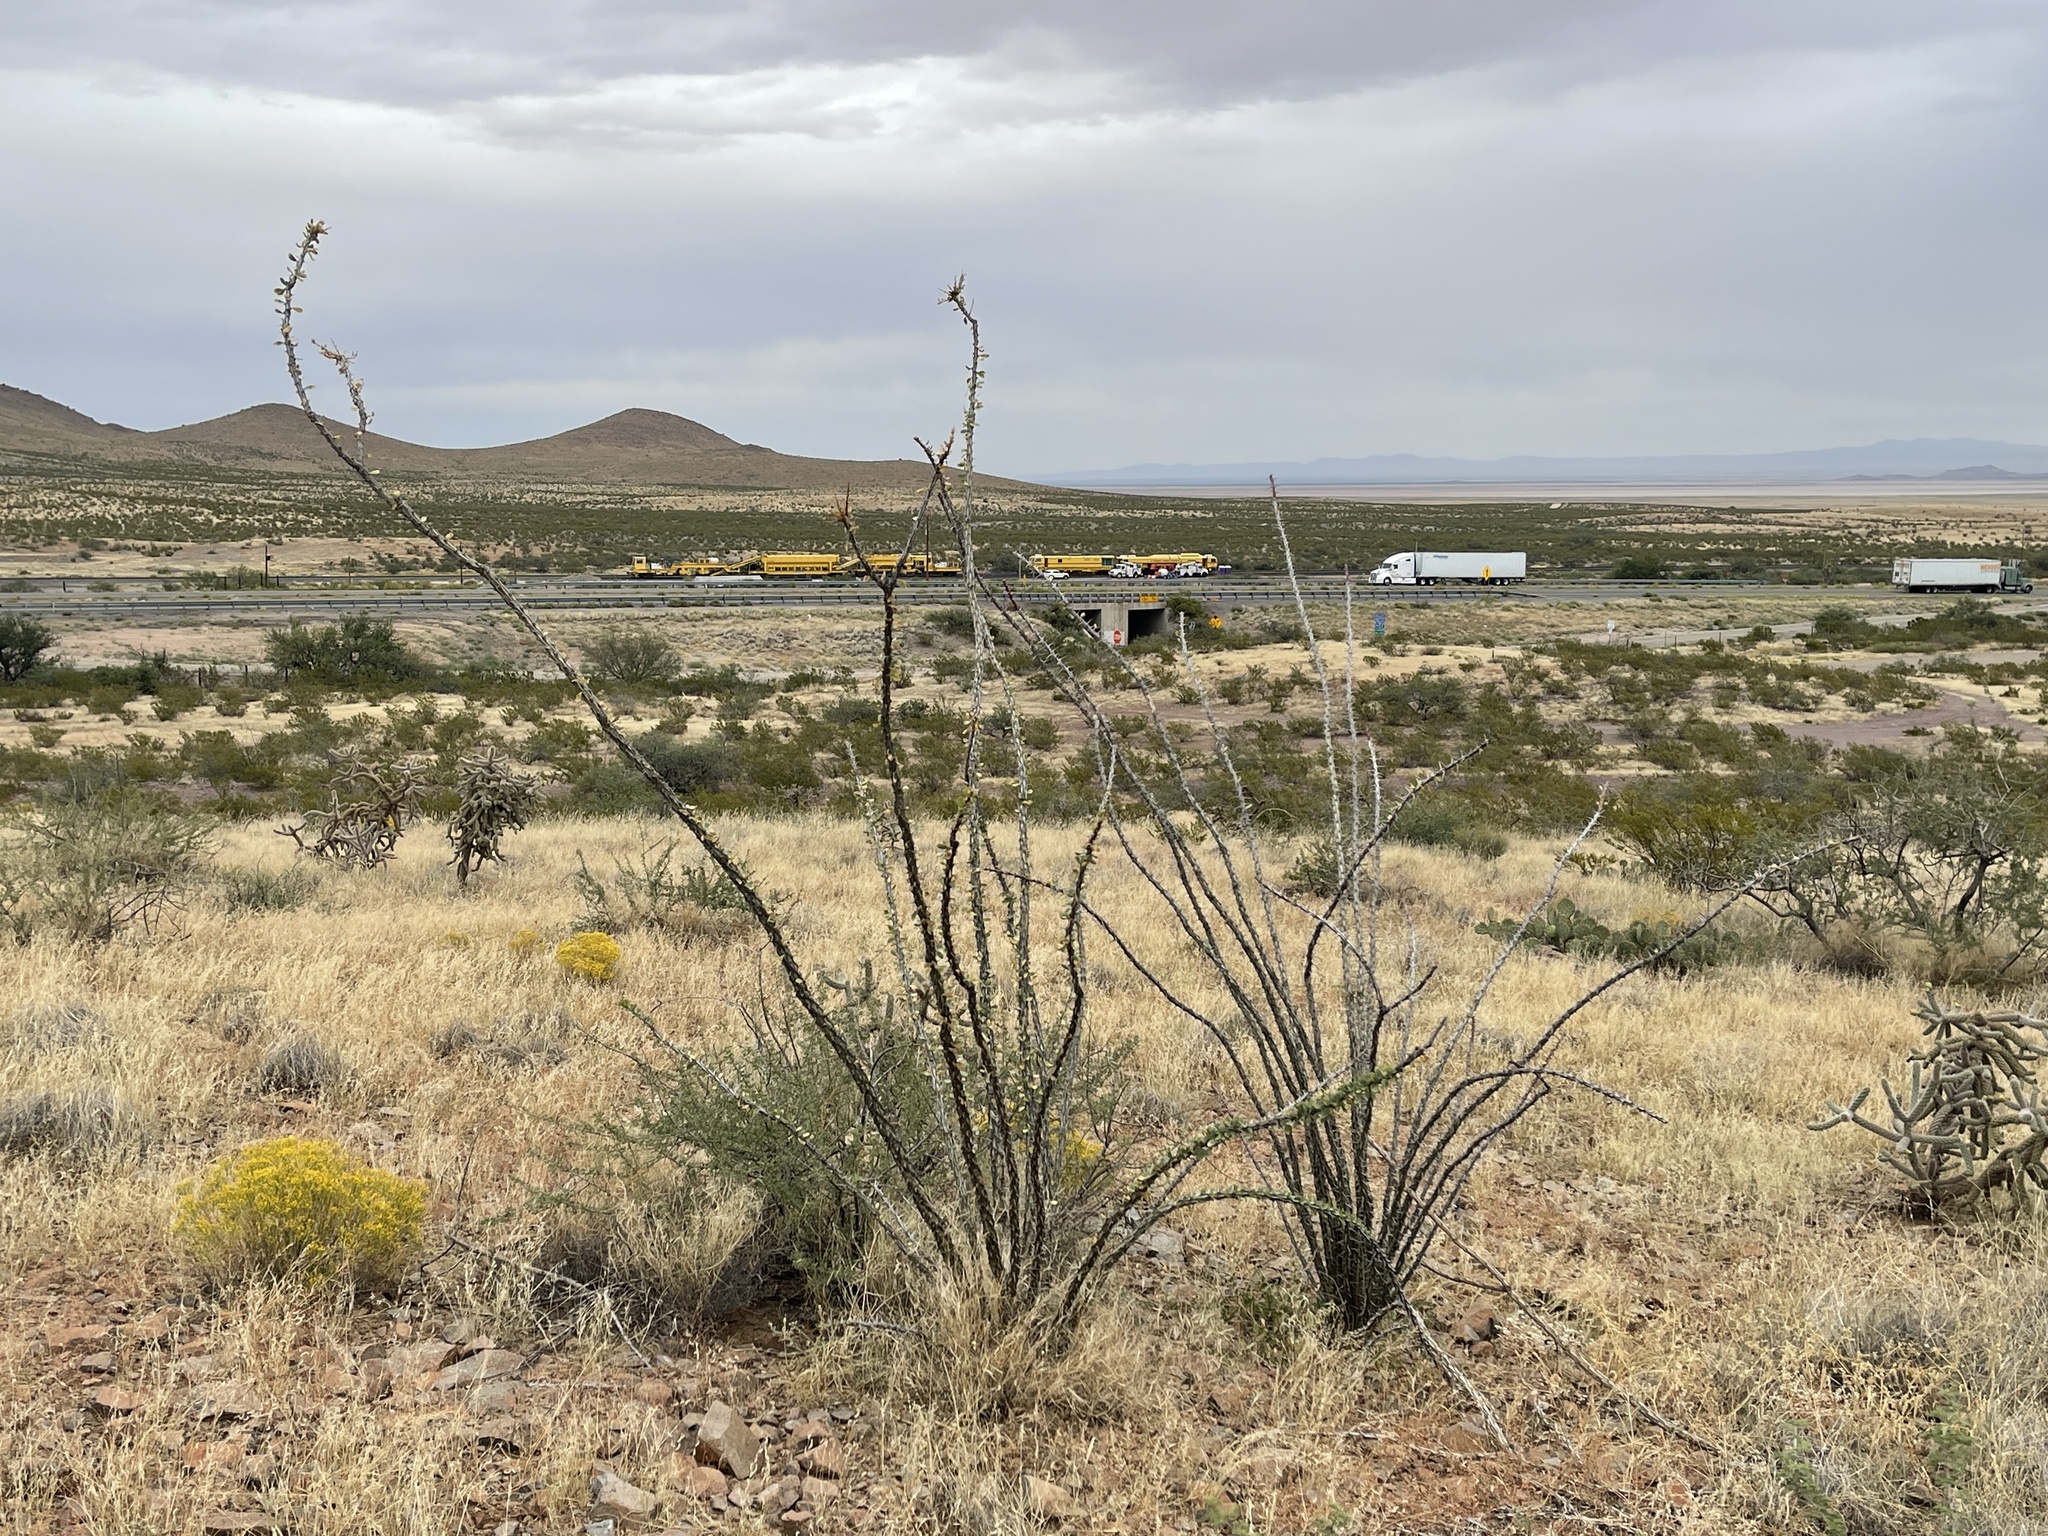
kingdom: Plantae
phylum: Tracheophyta
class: Magnoliopsida
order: Ericales
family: Fouquieriaceae
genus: Fouquieria
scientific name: Fouquieria splendens
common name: Vine-cactus
